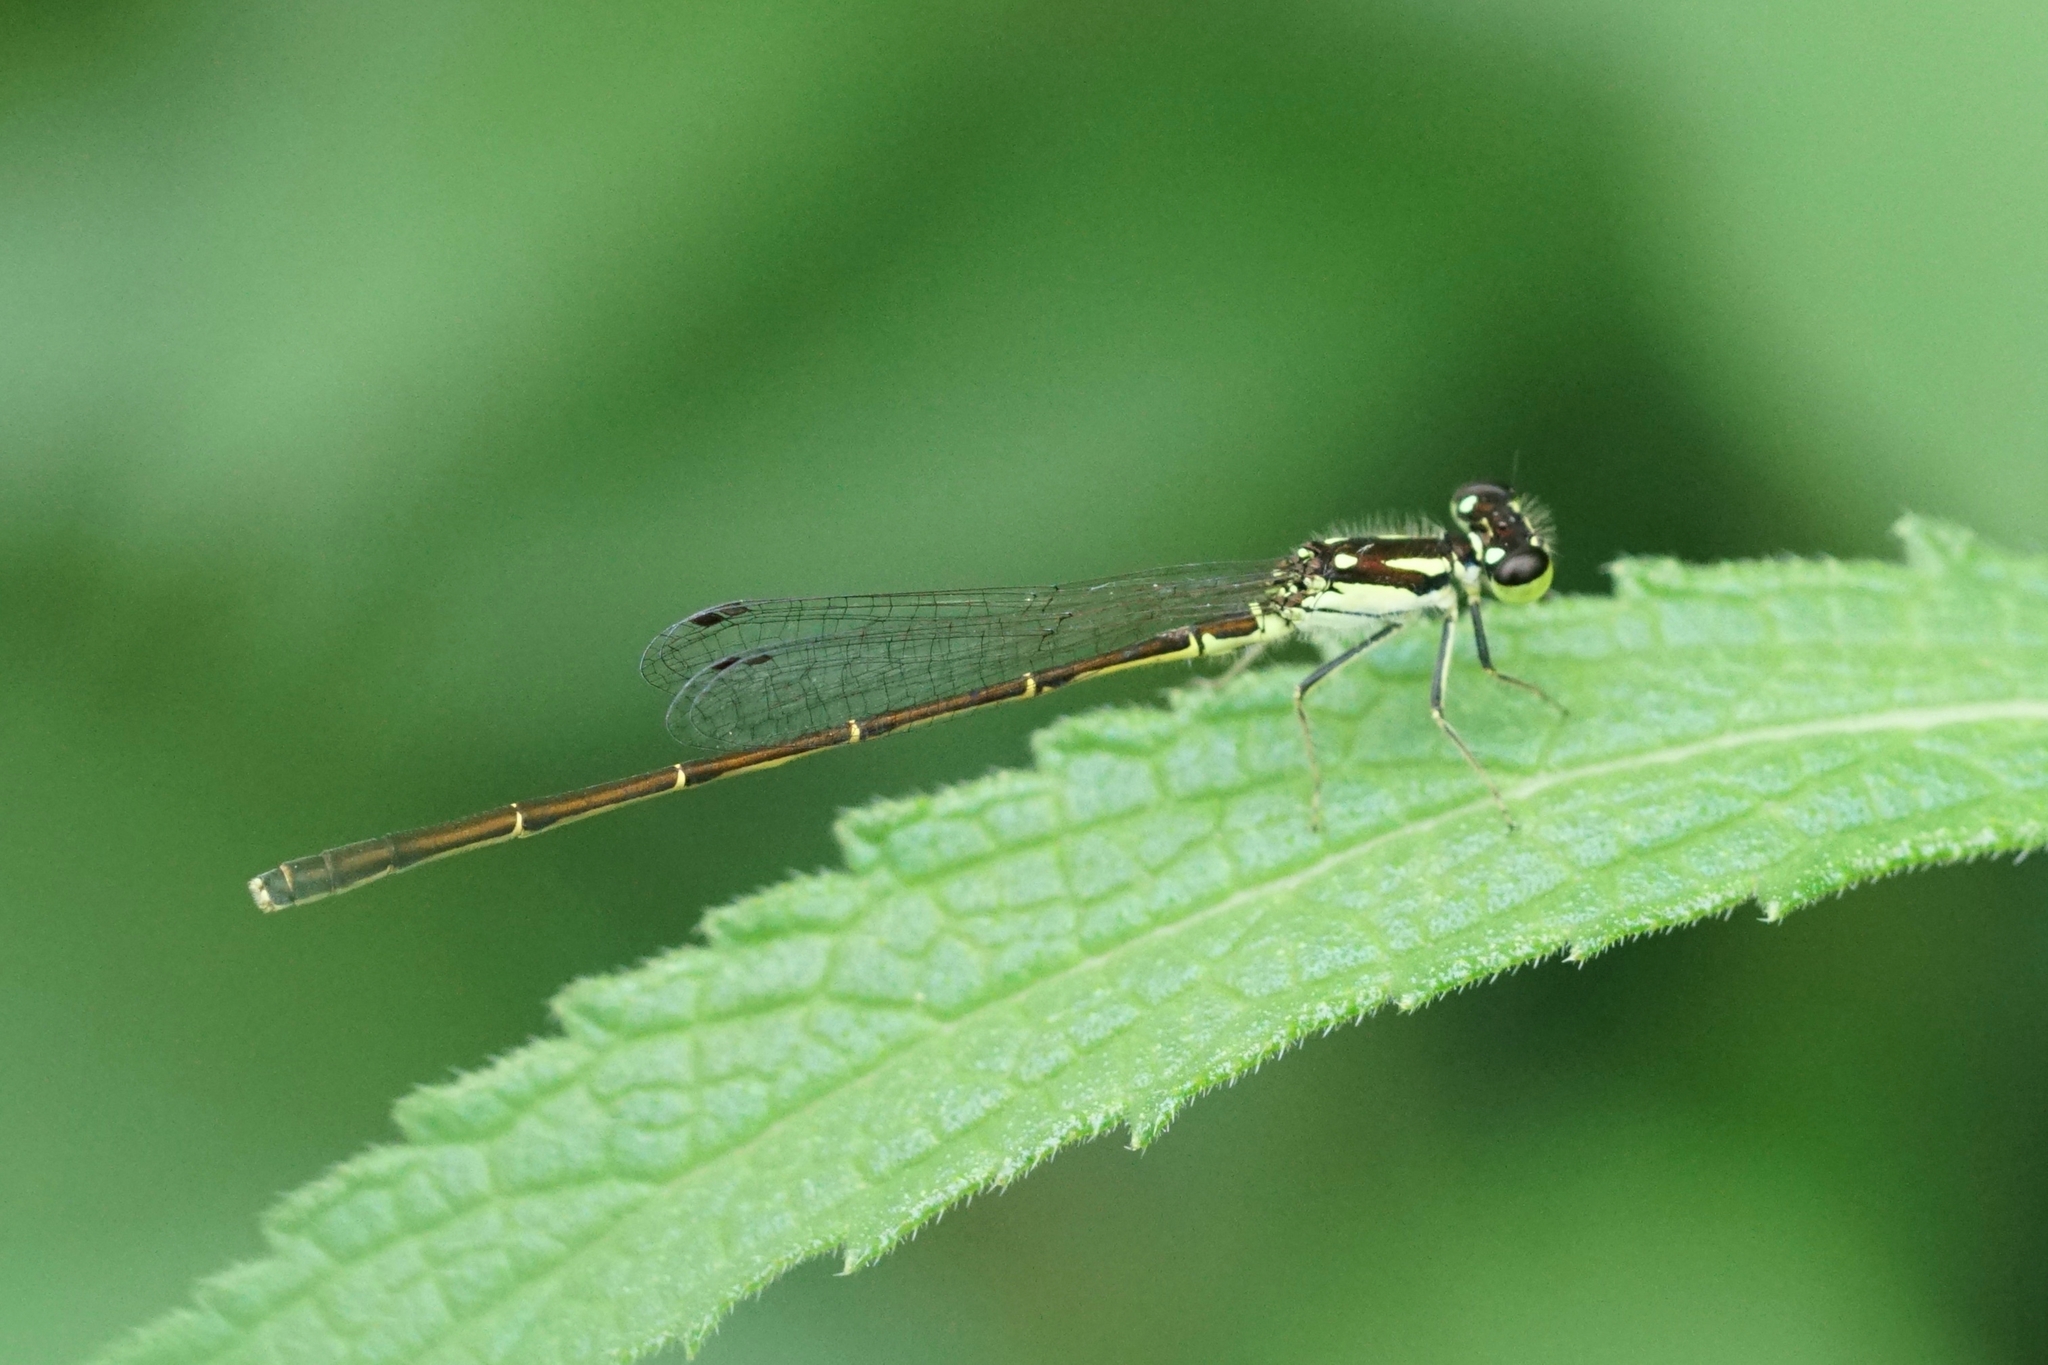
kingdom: Animalia
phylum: Arthropoda
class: Insecta
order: Odonata
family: Coenagrionidae
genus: Ischnura
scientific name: Ischnura posita
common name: Fragile forktail
